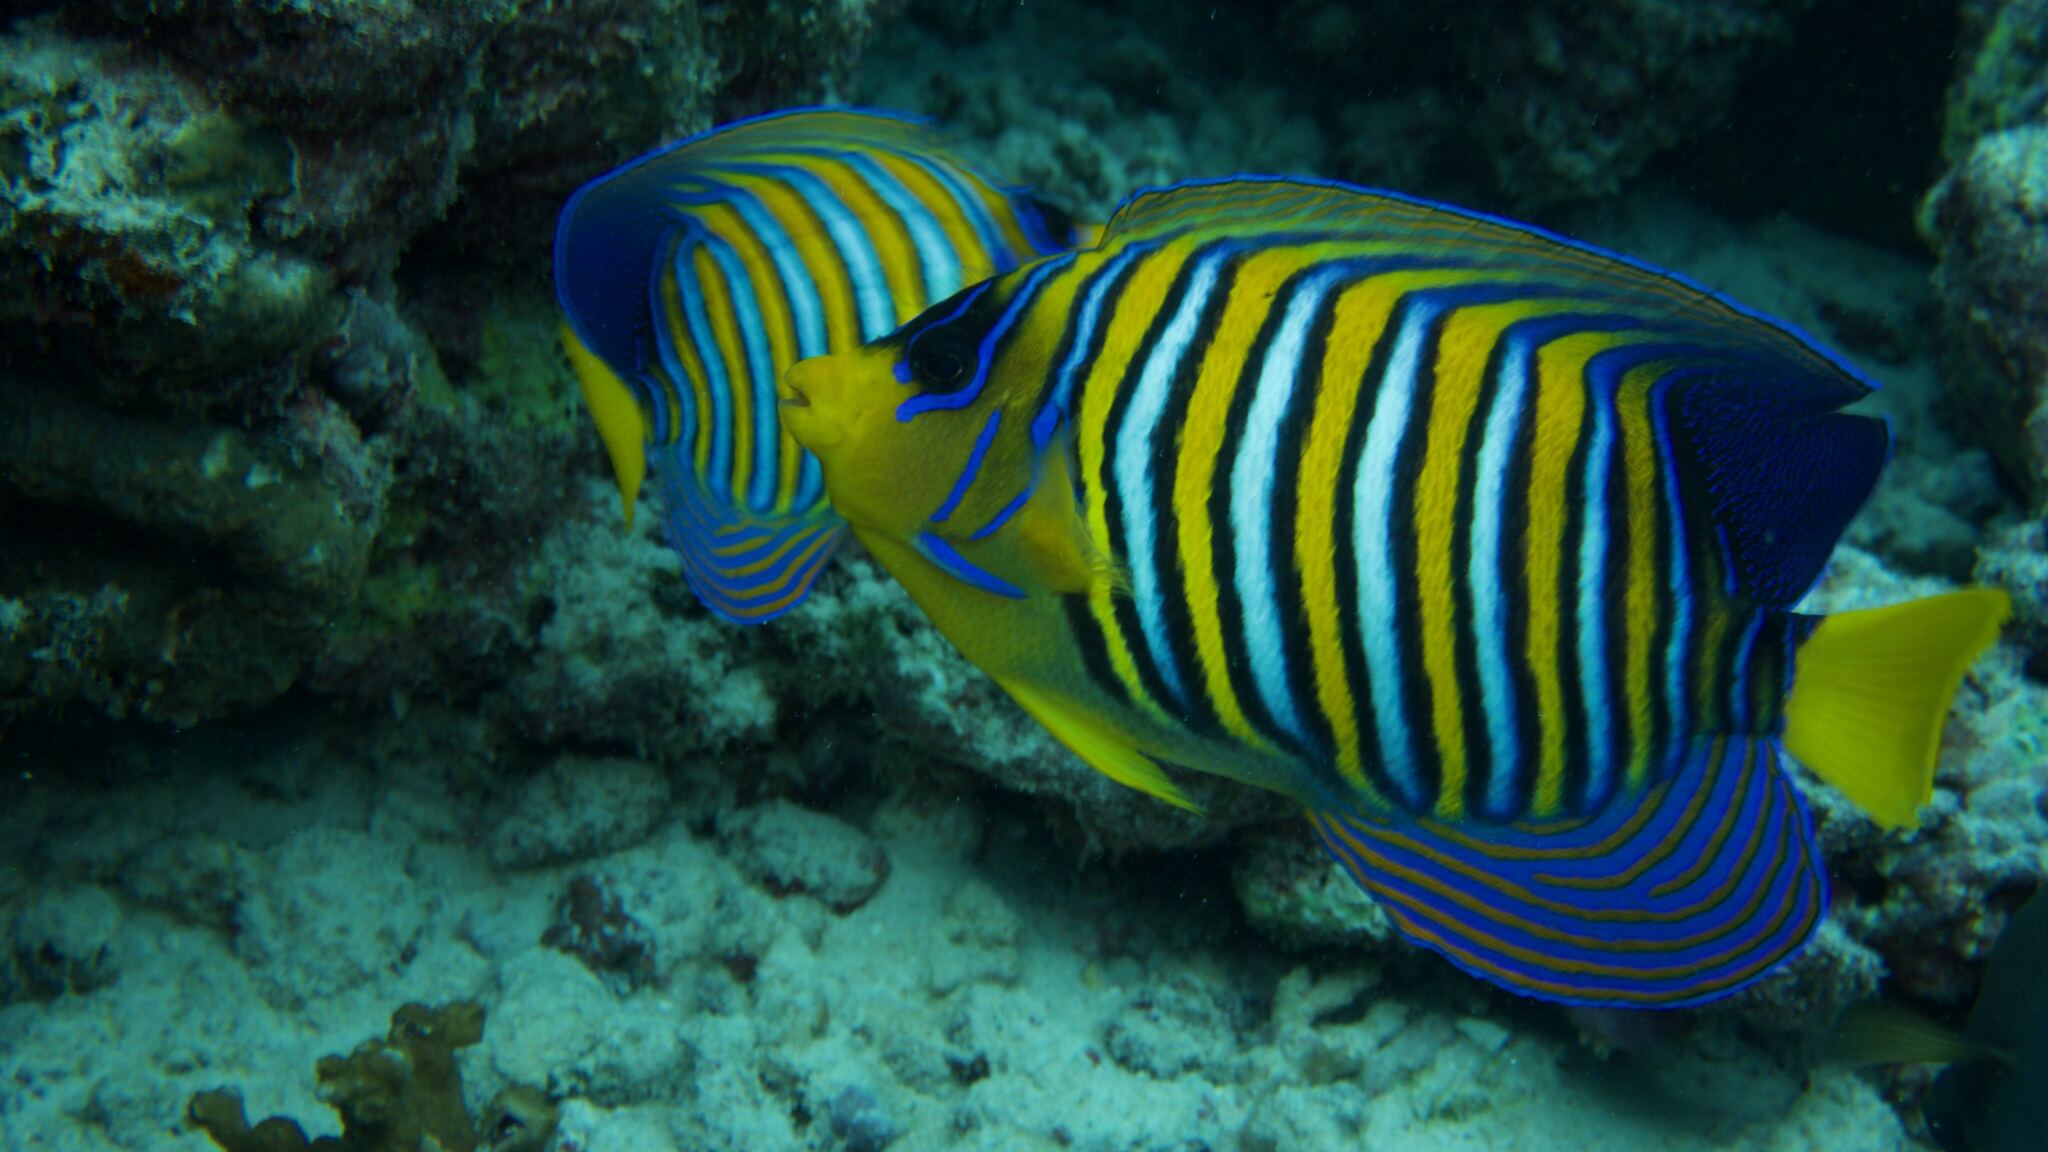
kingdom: Animalia
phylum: Chordata
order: Perciformes
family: Pomacanthidae
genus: Pygoplites
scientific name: Pygoplites diacanthus
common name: Regal angelfish
